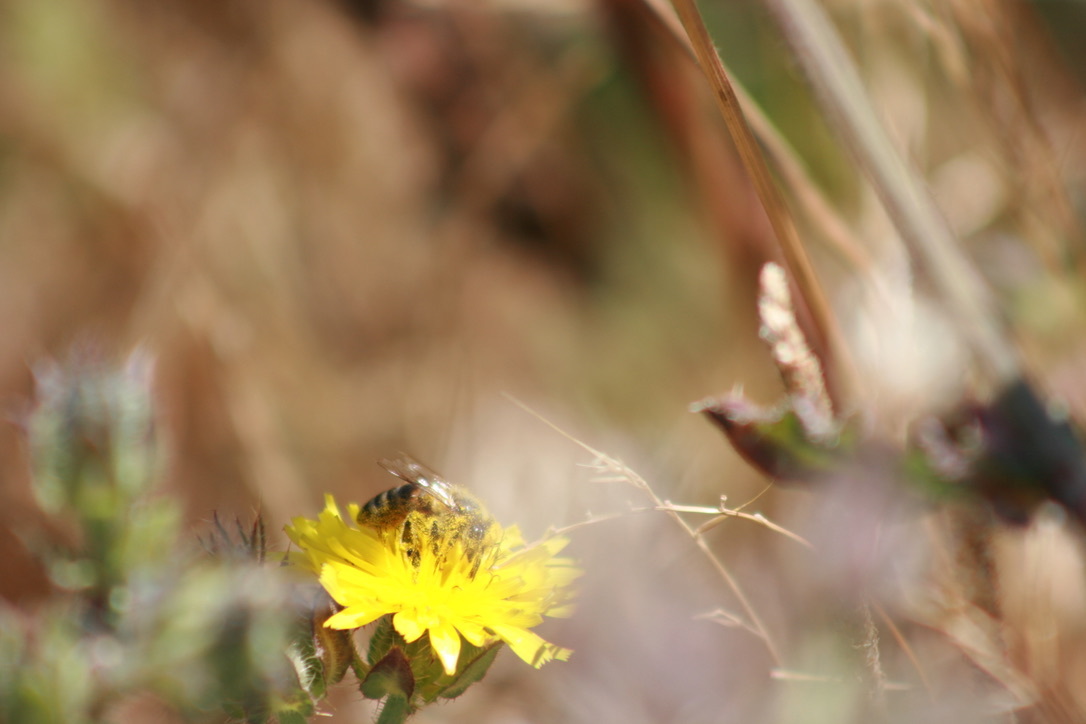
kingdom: Animalia
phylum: Arthropoda
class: Insecta
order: Hymenoptera
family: Apidae
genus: Apis
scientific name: Apis mellifera
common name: Honey bee
